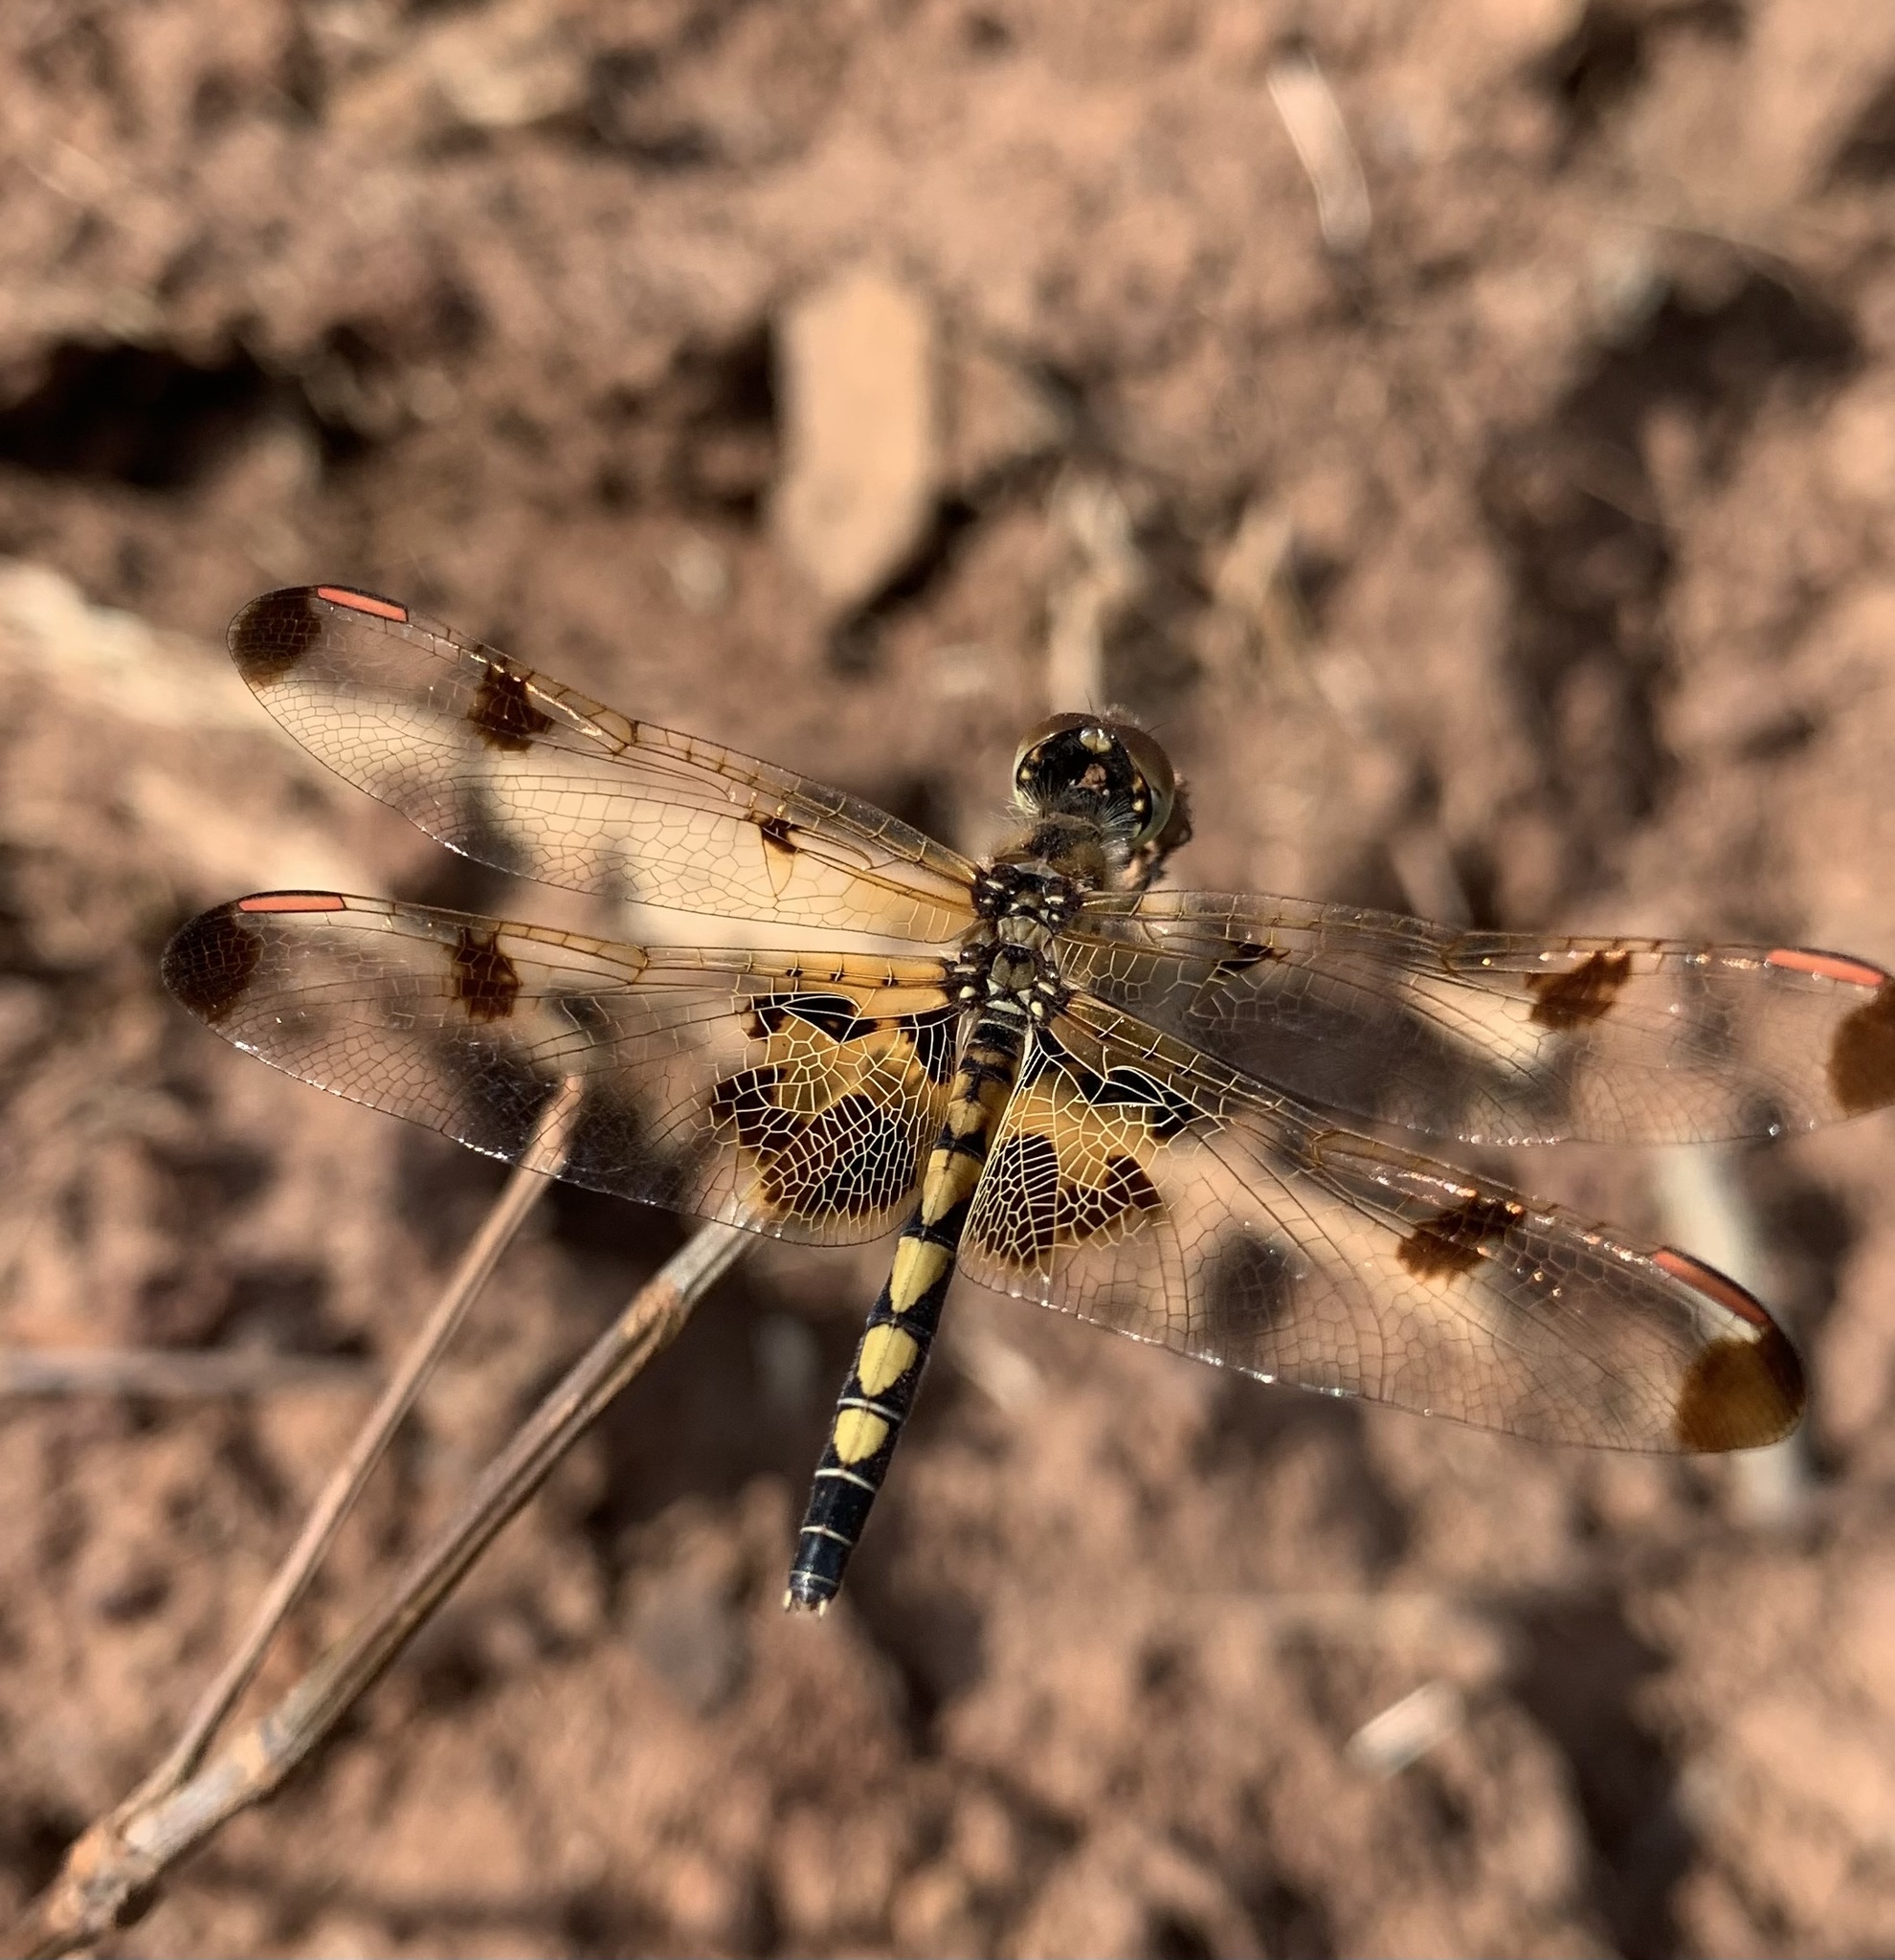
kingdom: Animalia
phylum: Arthropoda
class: Insecta
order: Odonata
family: Libellulidae
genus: Celithemis
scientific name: Celithemis elisa
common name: Calico pennant
